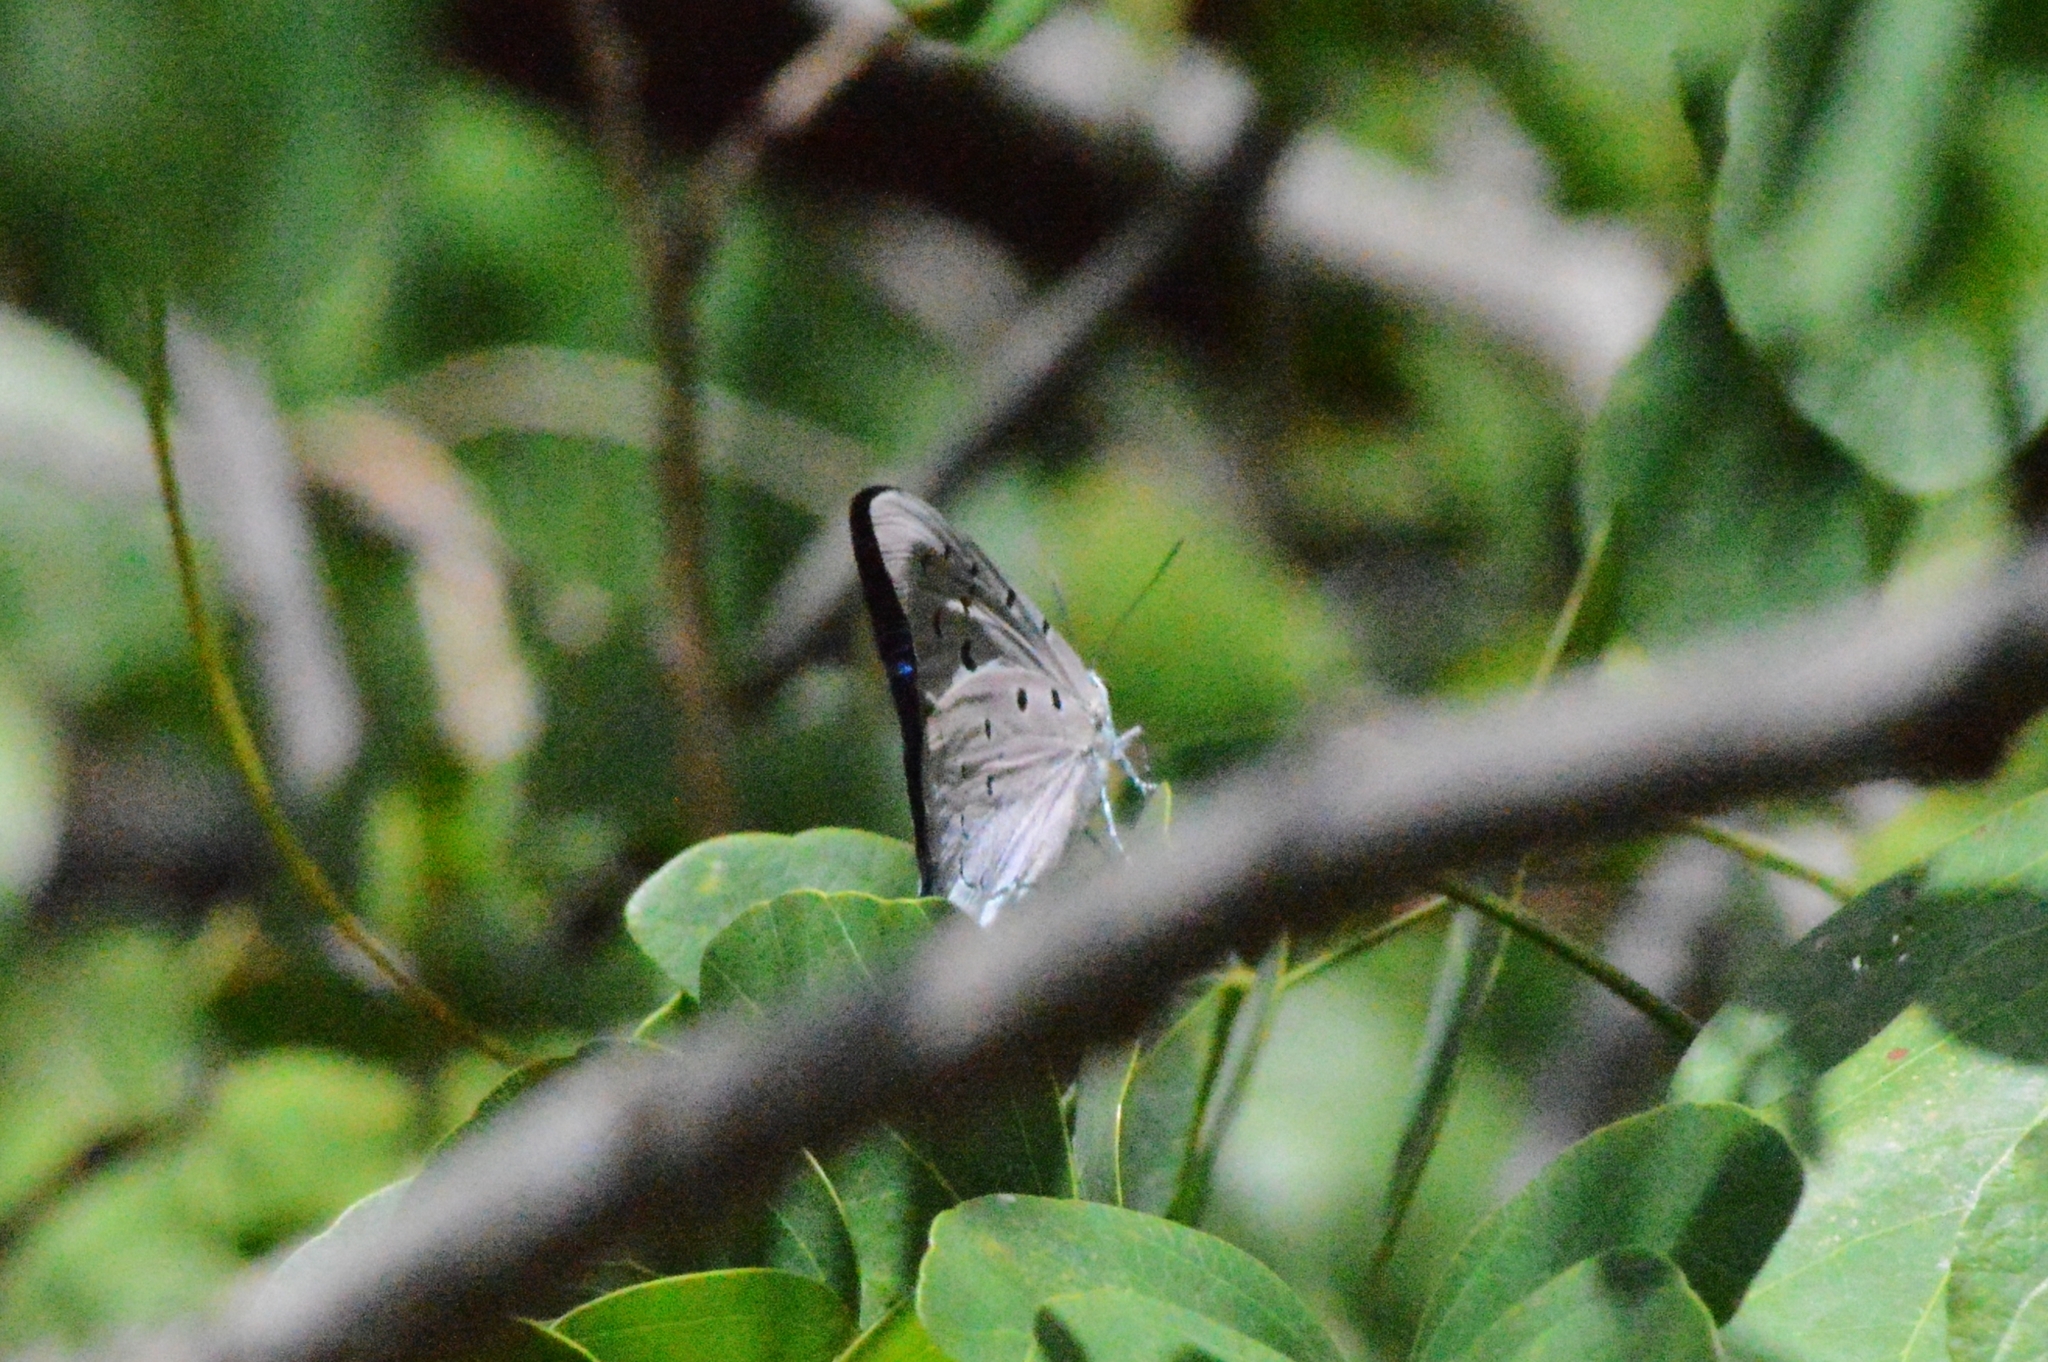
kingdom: Animalia
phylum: Arthropoda
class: Insecta
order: Lepidoptera
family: Lycaenidae
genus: Pseudolycaena
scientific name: Pseudolycaena marsyas
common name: Marsyas hairstreak
